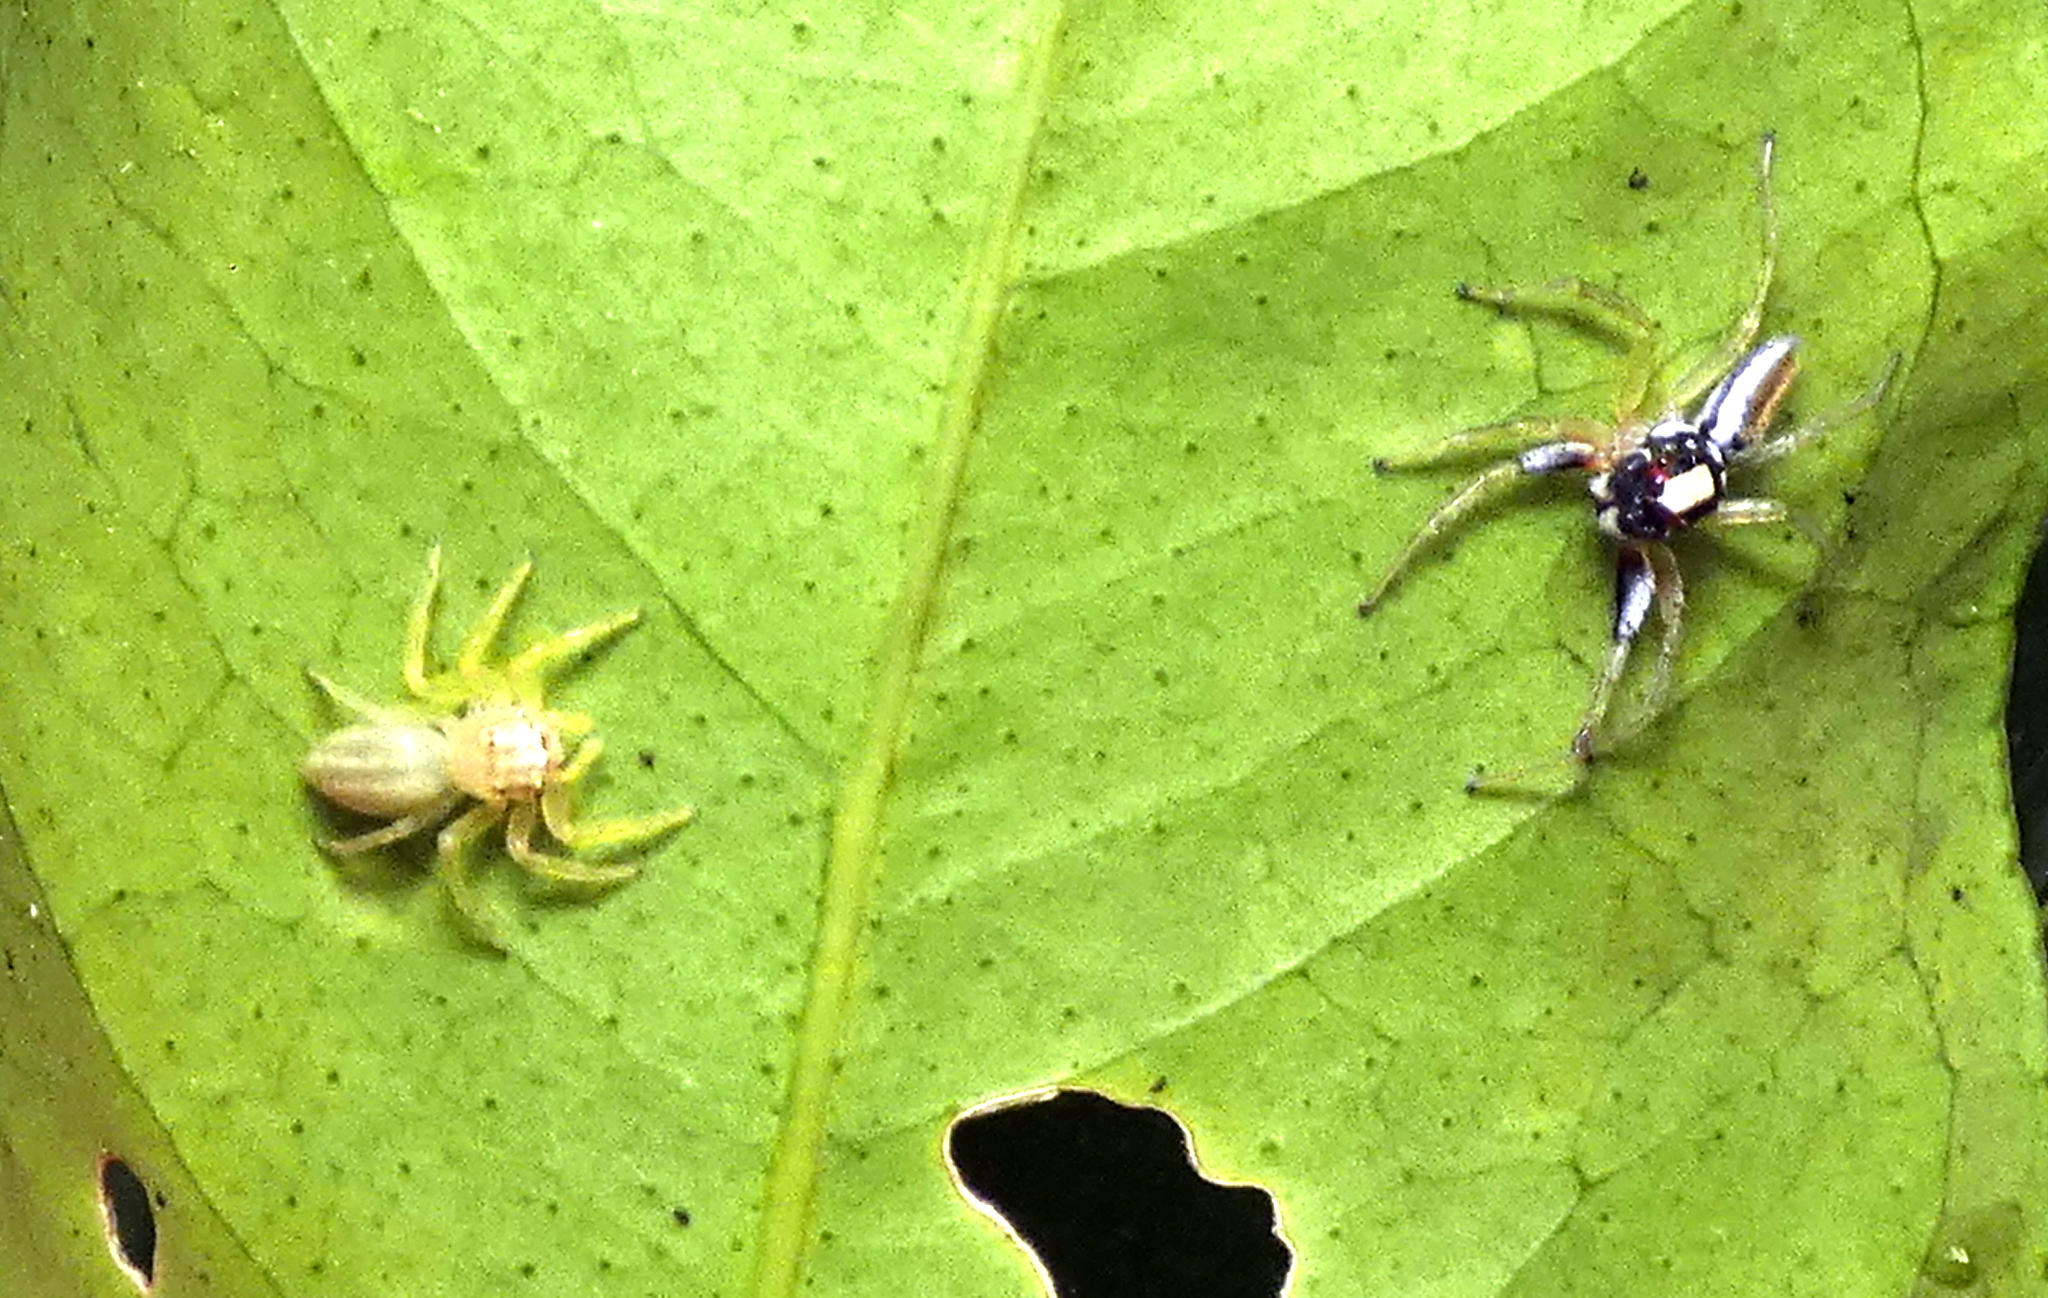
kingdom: Animalia
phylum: Arthropoda
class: Arachnida
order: Araneae
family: Salticidae
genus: Chira
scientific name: Chira spinosa
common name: Jumping spiders
